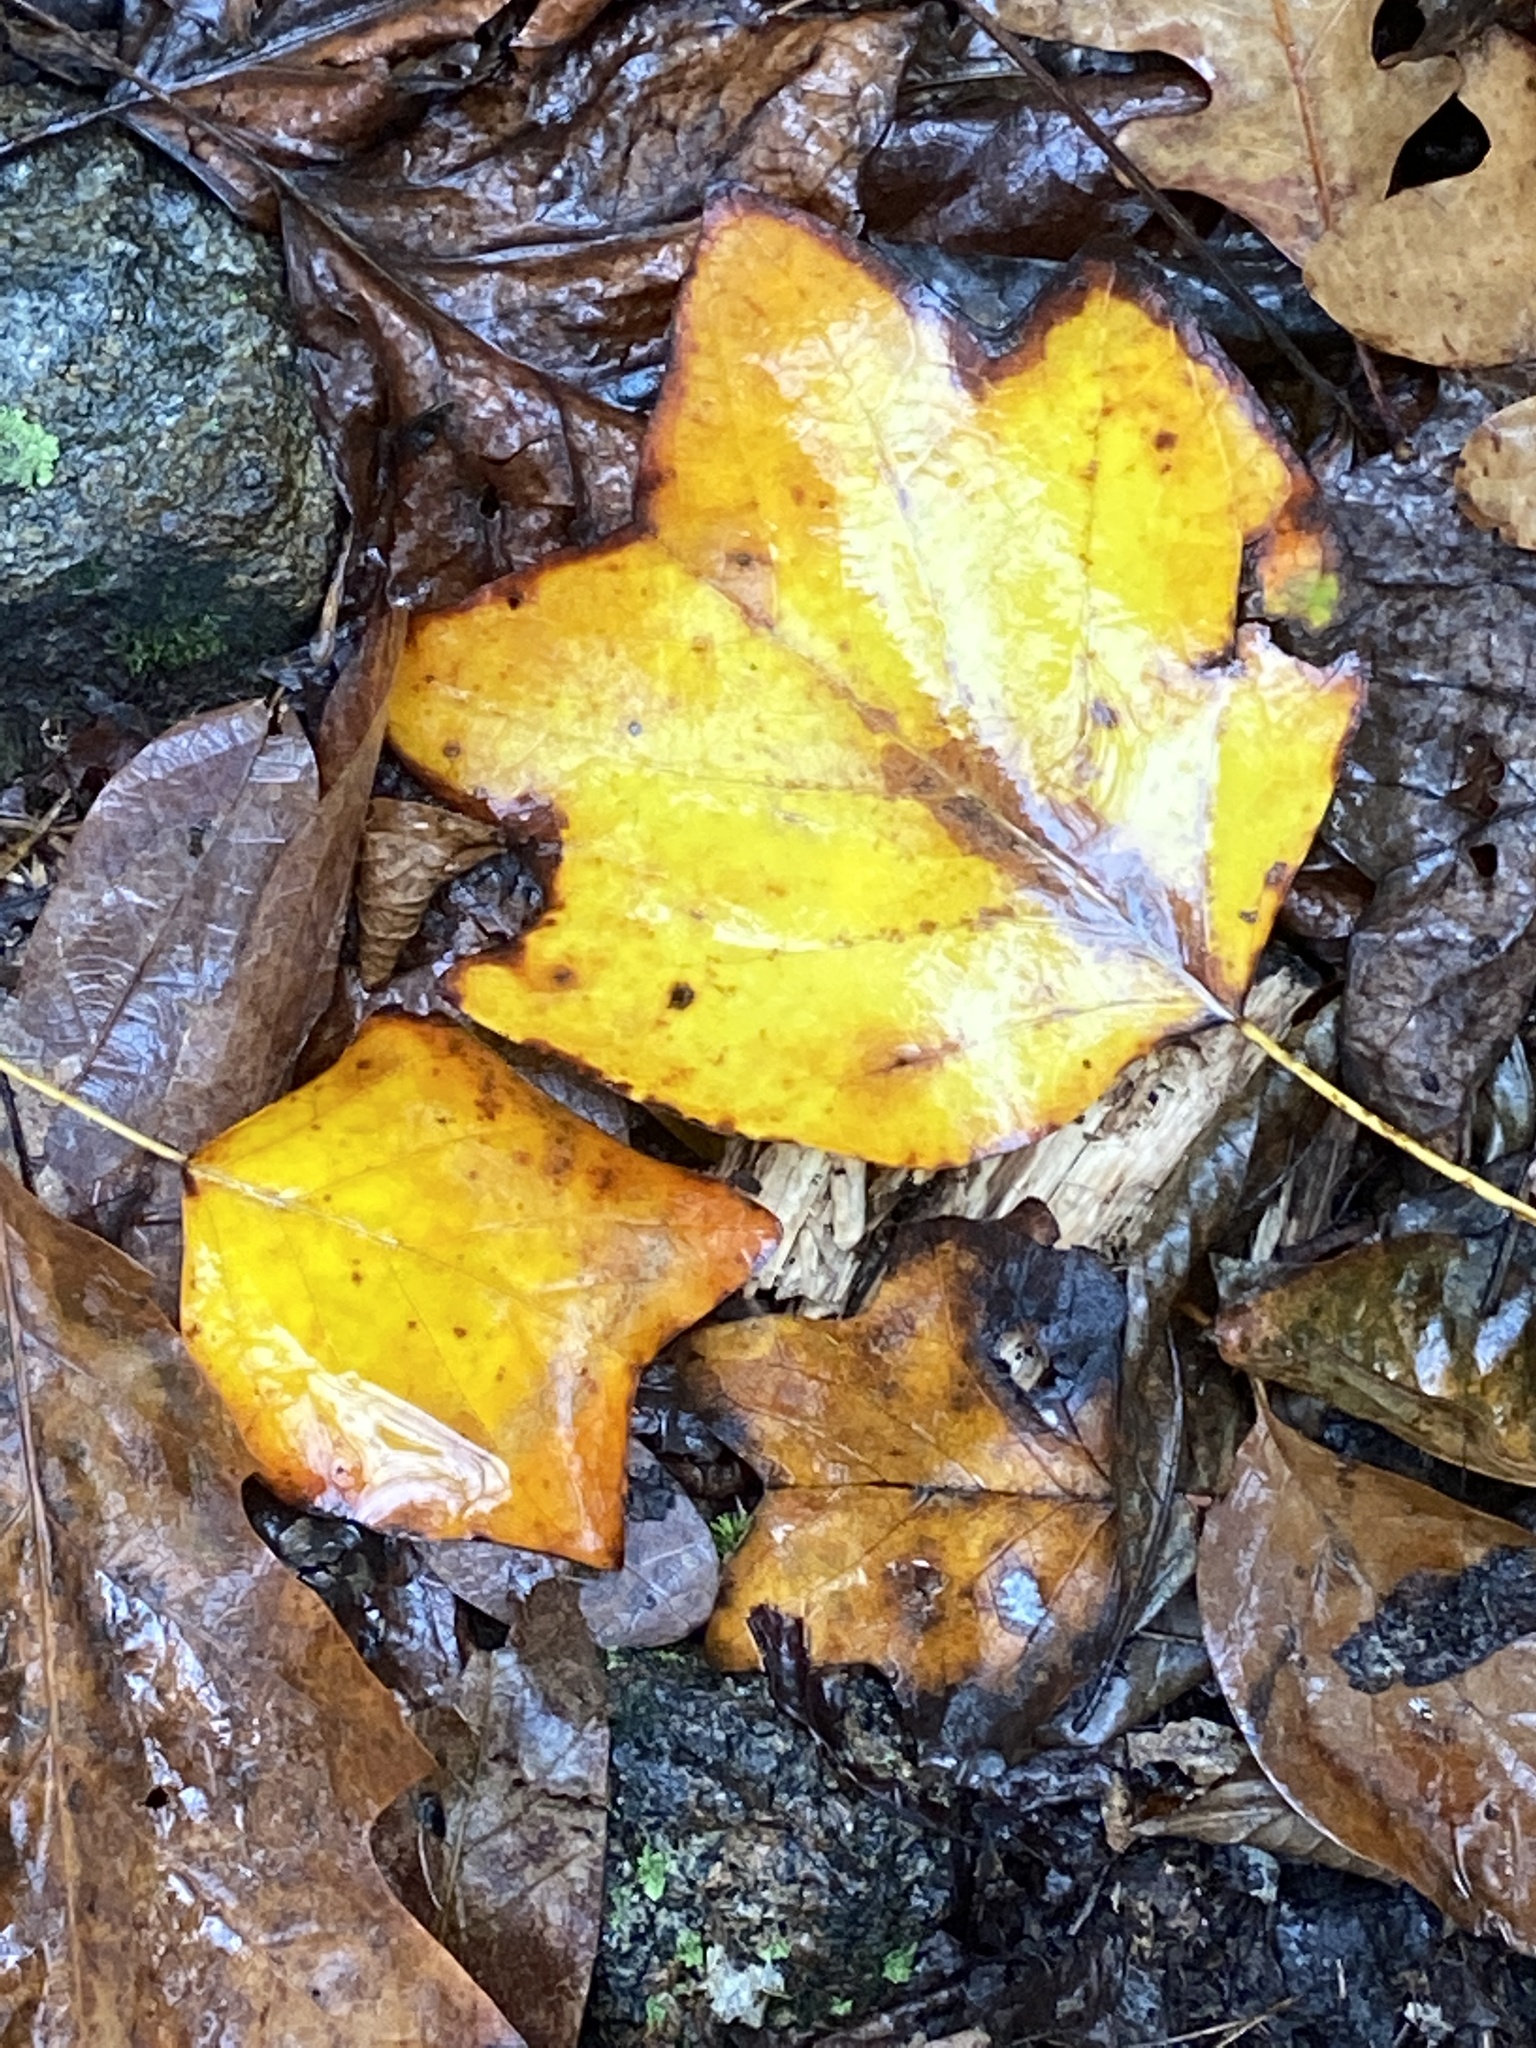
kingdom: Plantae
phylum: Tracheophyta
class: Magnoliopsida
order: Magnoliales
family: Magnoliaceae
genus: Liriodendron
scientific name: Liriodendron tulipifera
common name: Tulip tree
